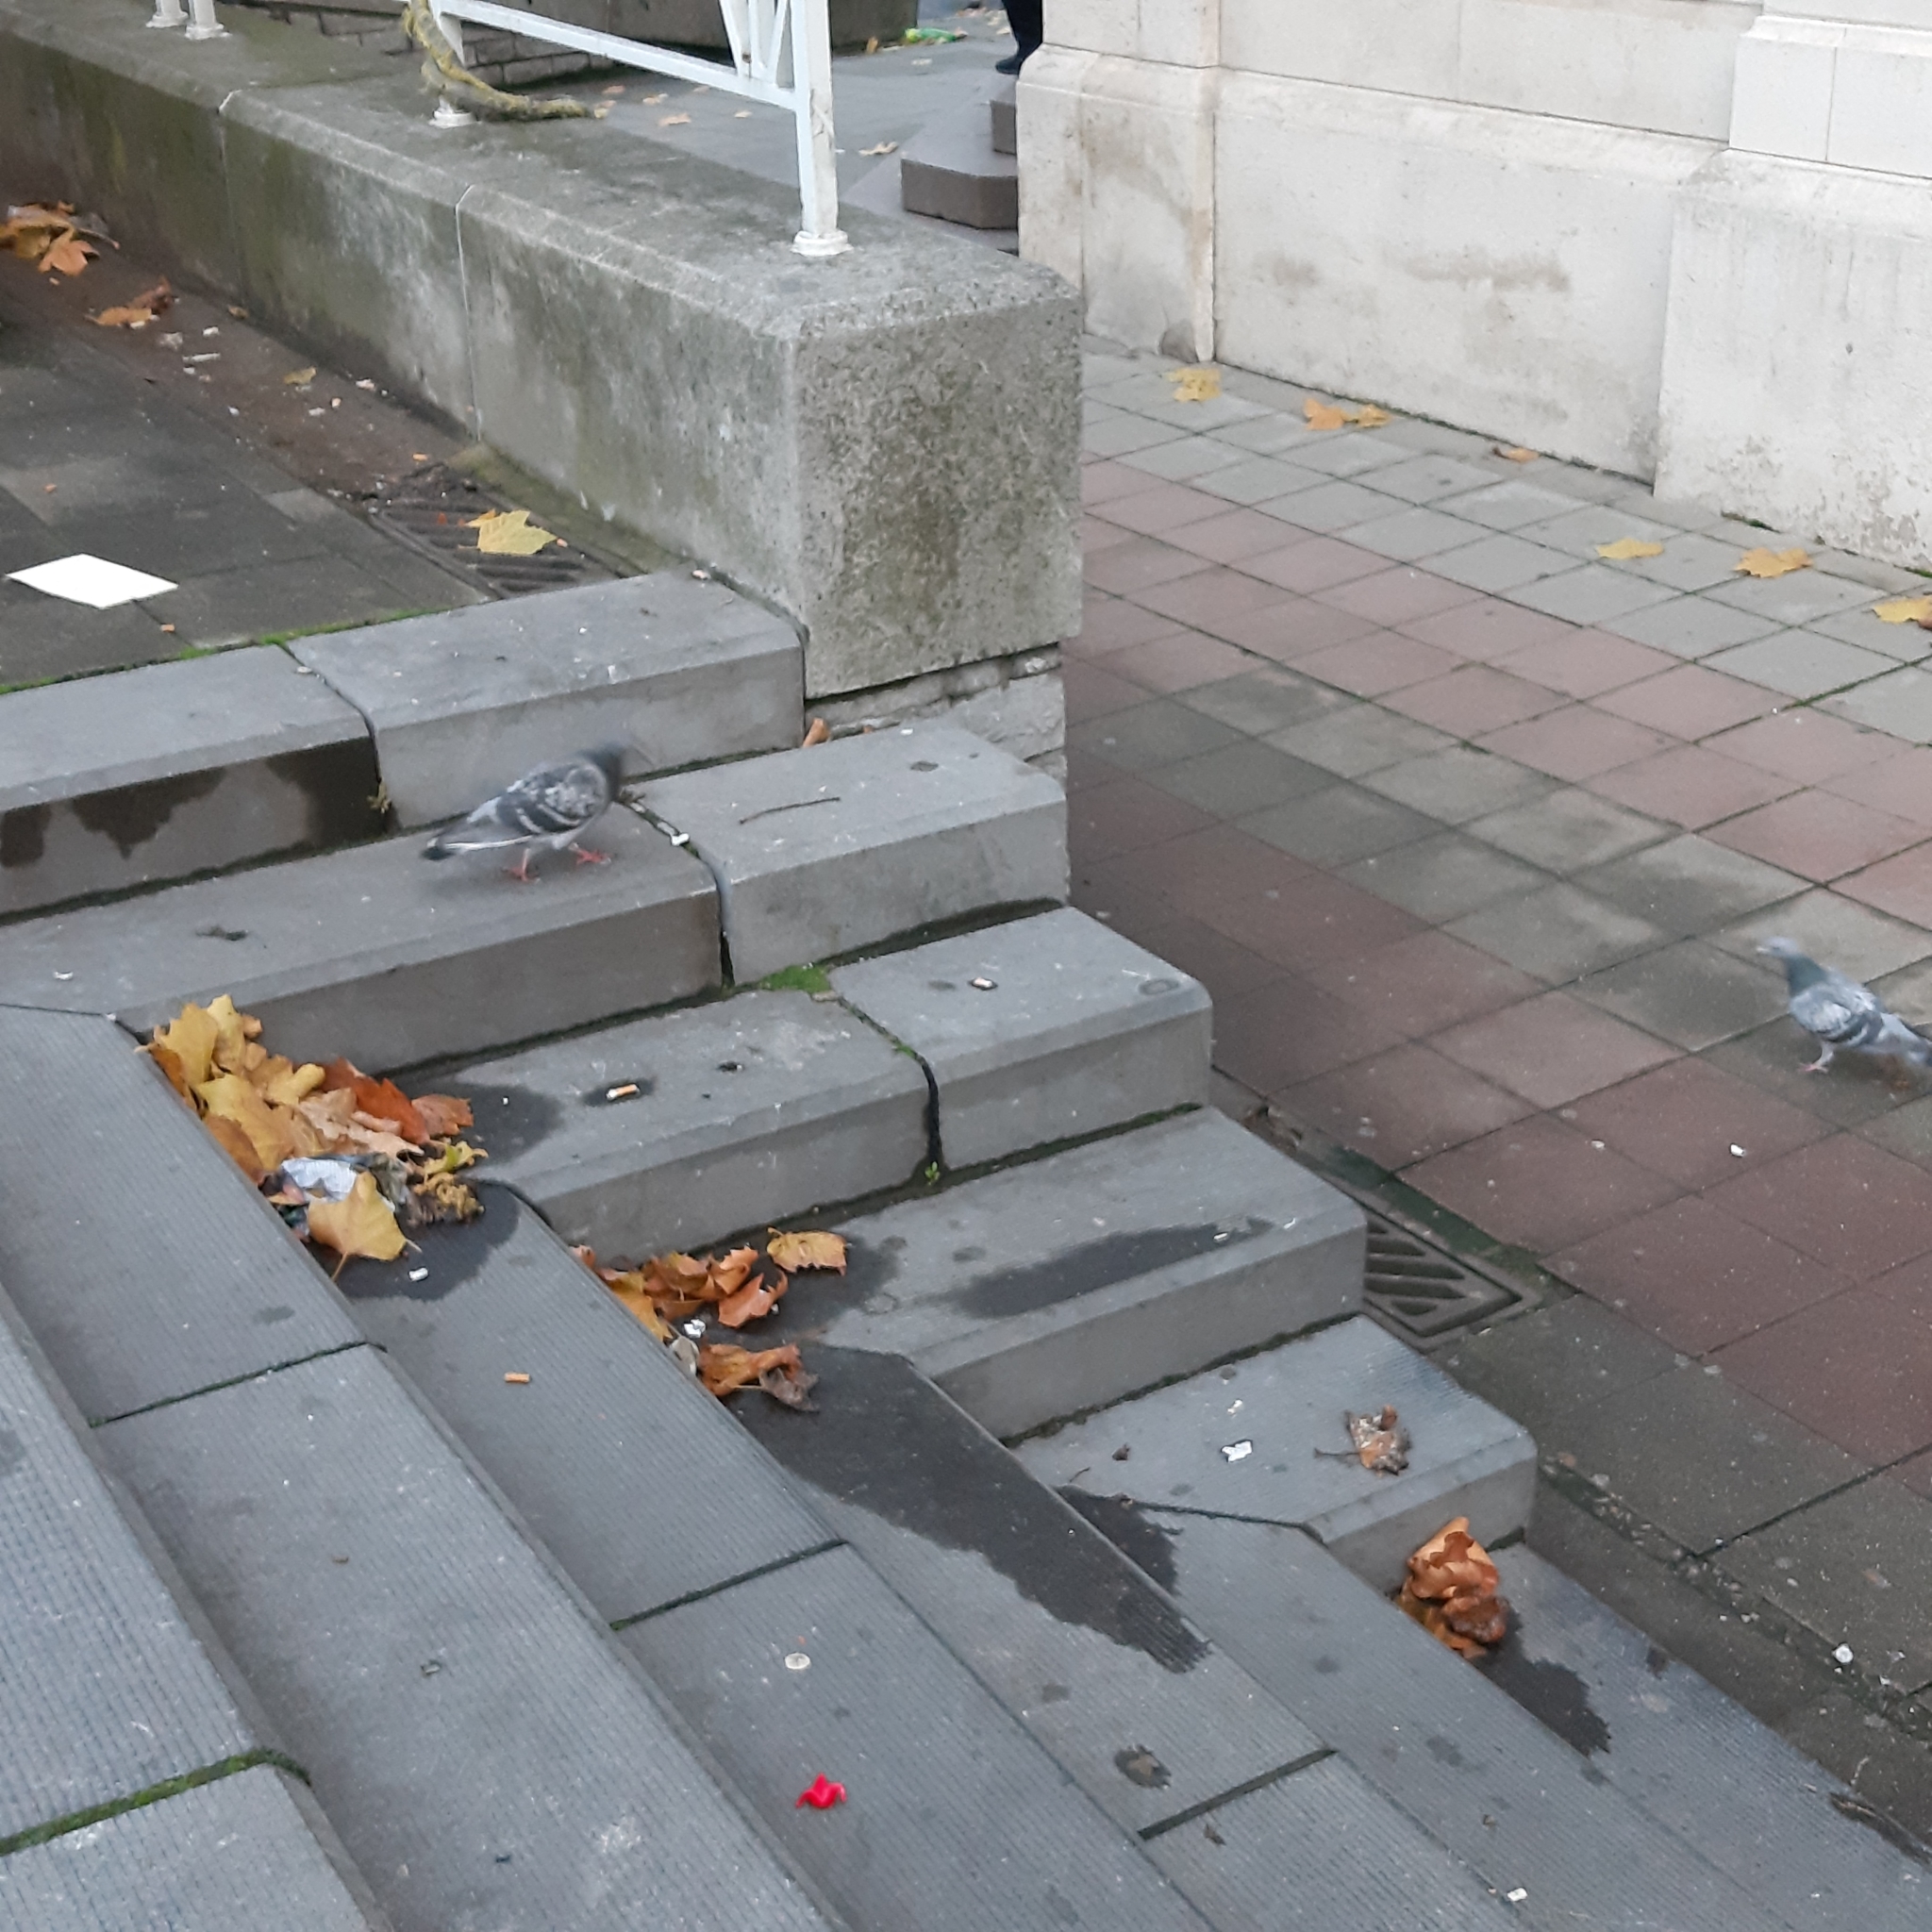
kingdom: Animalia
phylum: Chordata
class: Aves
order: Columbiformes
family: Columbidae
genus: Columba
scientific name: Columba livia
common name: Rock pigeon
